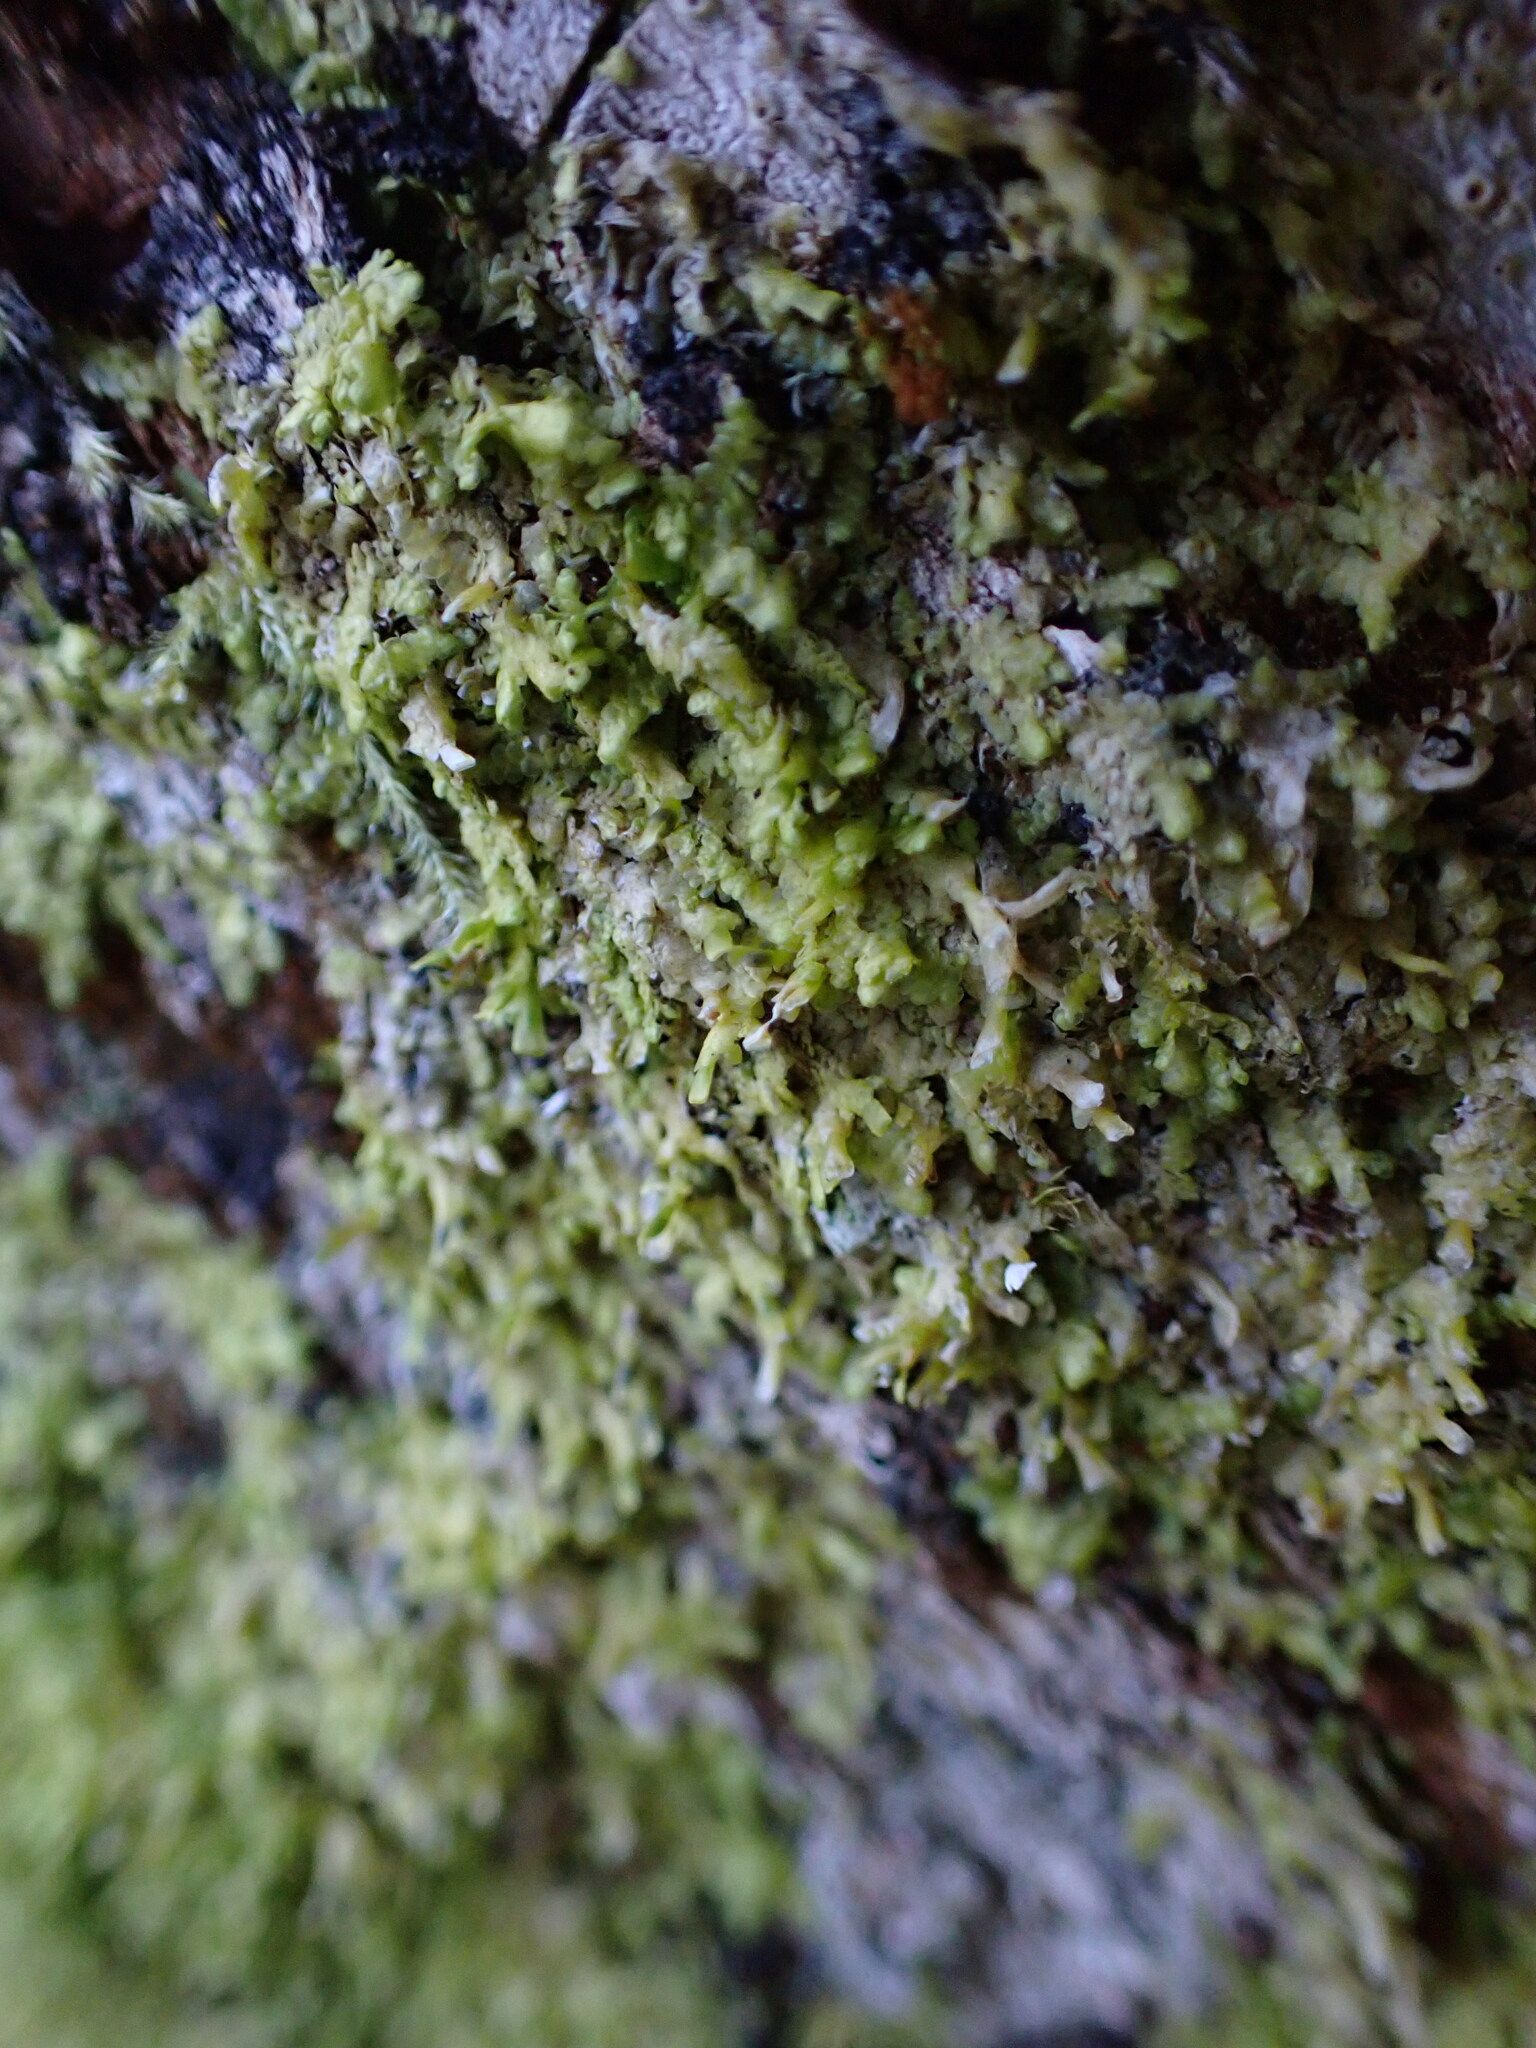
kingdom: Plantae
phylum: Marchantiophyta
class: Jungermanniopsida
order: Porellales
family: Radulaceae
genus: Radula
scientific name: Radula complanata
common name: Flat-leaved scalewort
